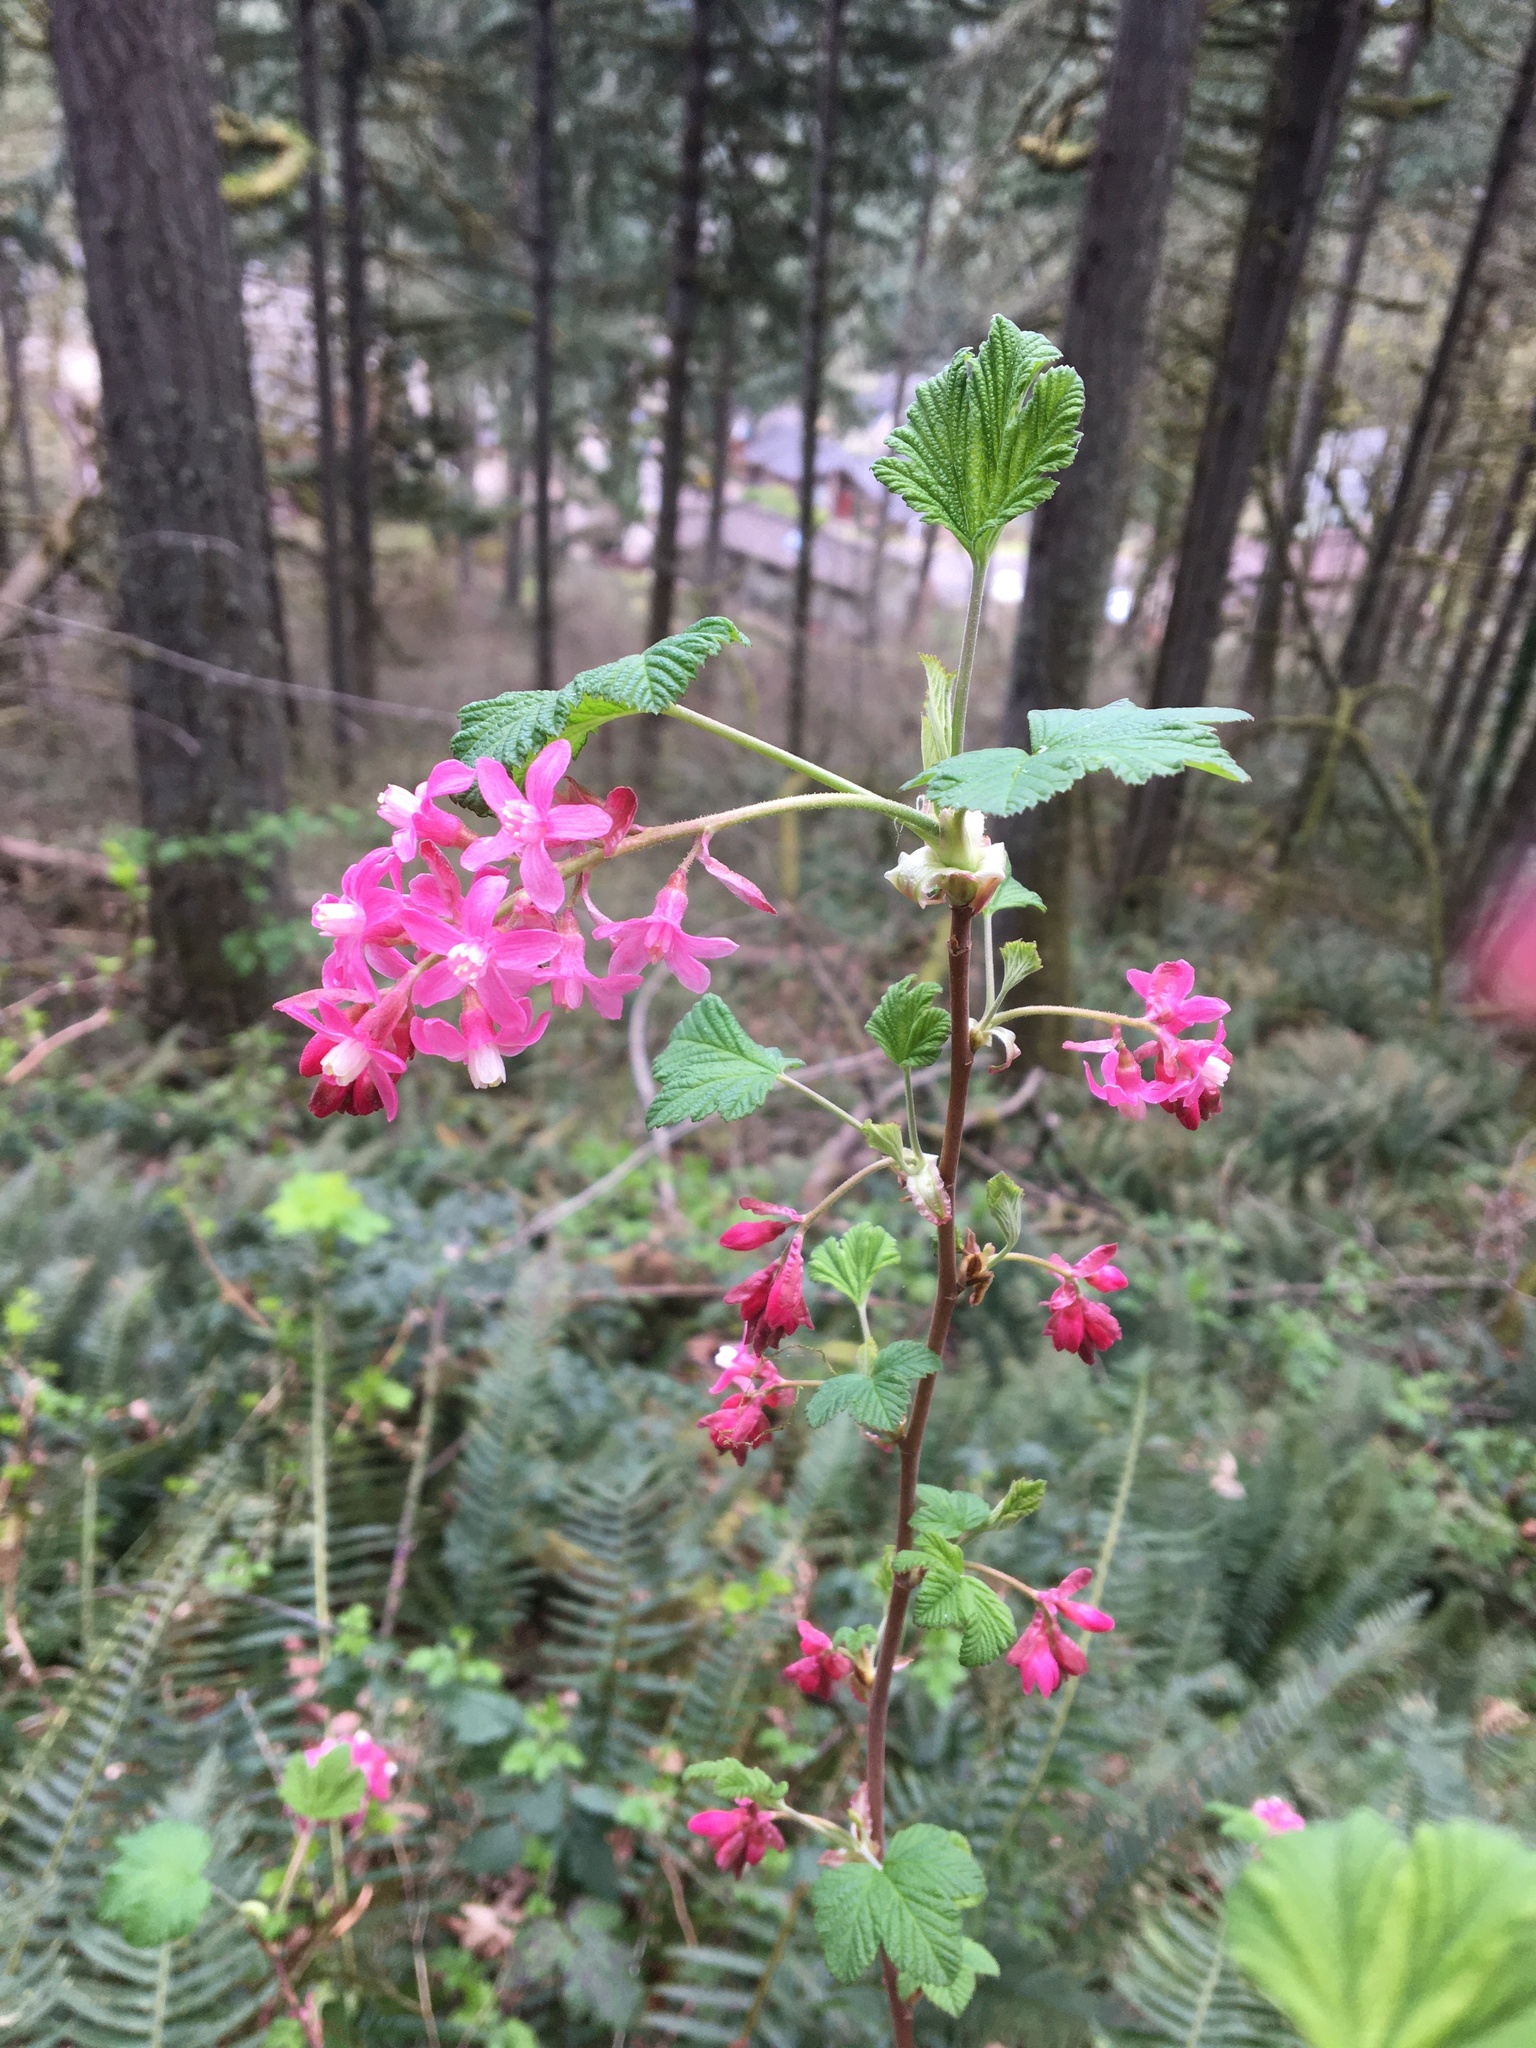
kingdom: Plantae
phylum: Tracheophyta
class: Magnoliopsida
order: Saxifragales
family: Grossulariaceae
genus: Ribes
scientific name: Ribes sanguineum
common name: Flowering currant
